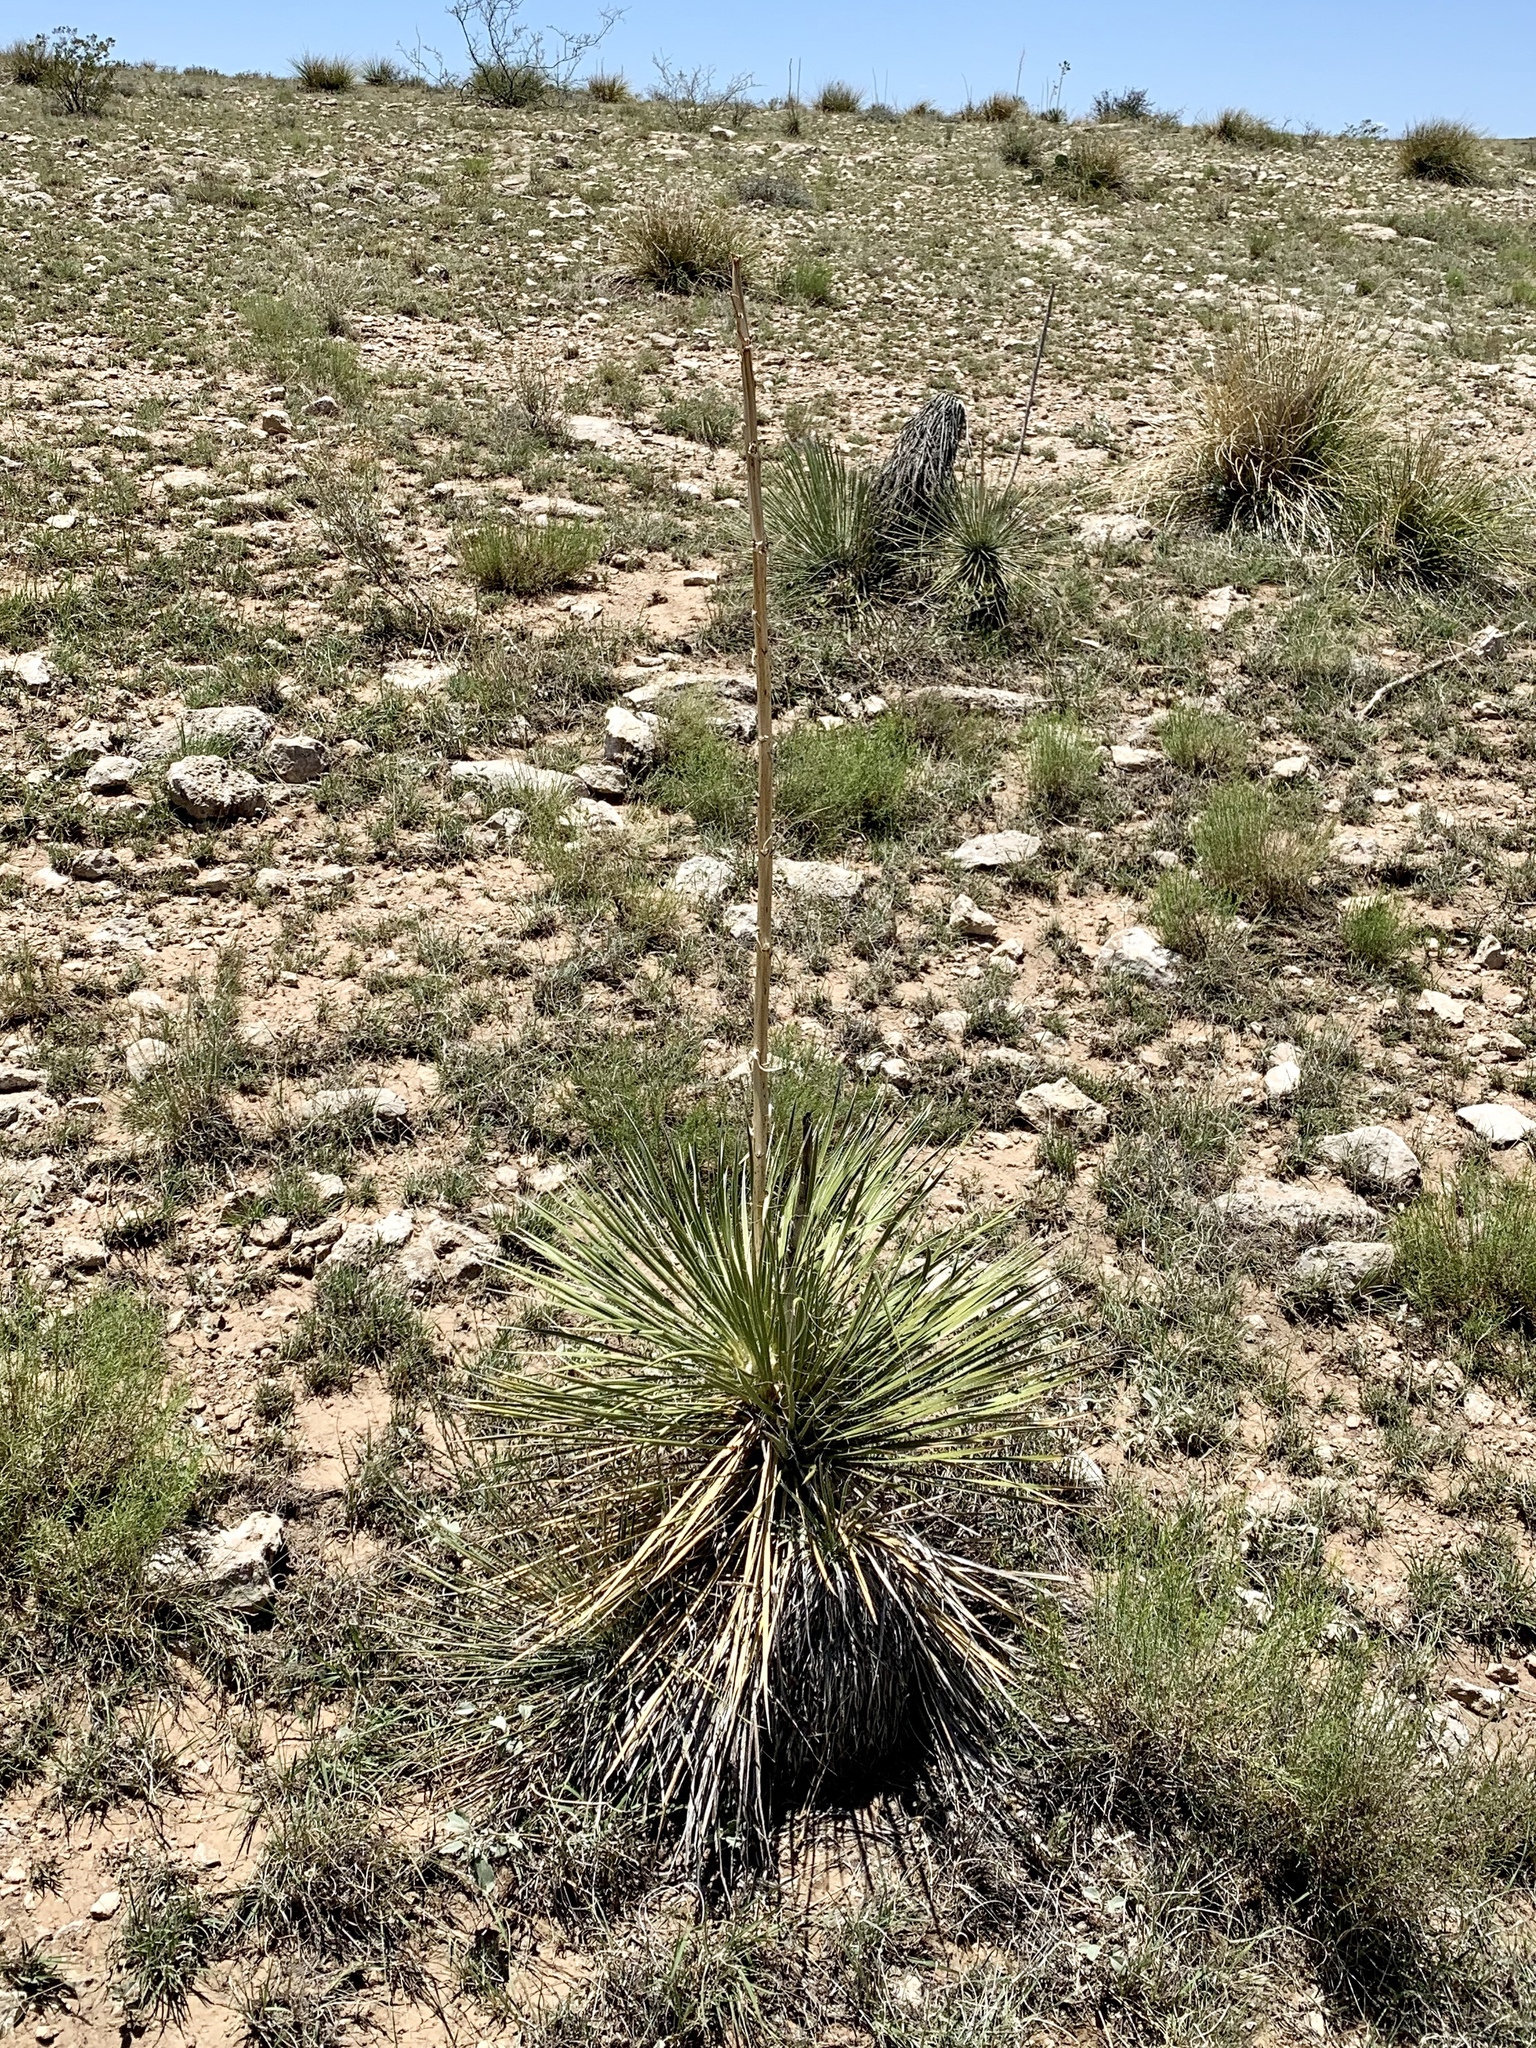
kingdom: Plantae
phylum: Tracheophyta
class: Liliopsida
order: Asparagales
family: Asparagaceae
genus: Yucca
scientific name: Yucca elata
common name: Palmella
